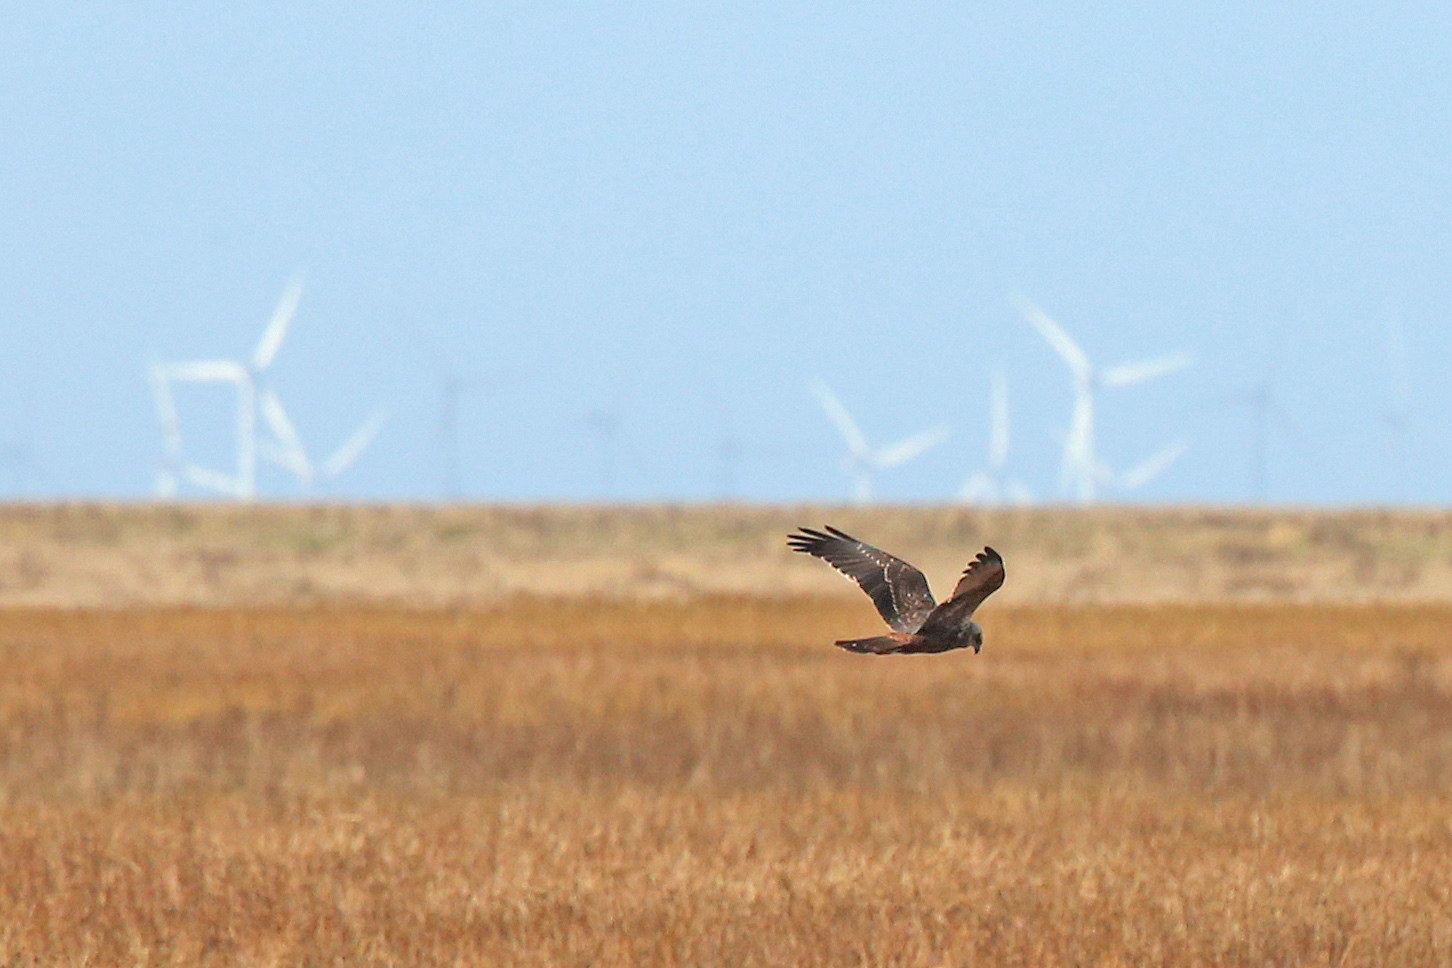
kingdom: Animalia
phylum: Chordata
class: Aves
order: Accipitriformes
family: Accipitridae
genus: Circus
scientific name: Circus aeruginosus
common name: Western marsh harrier
